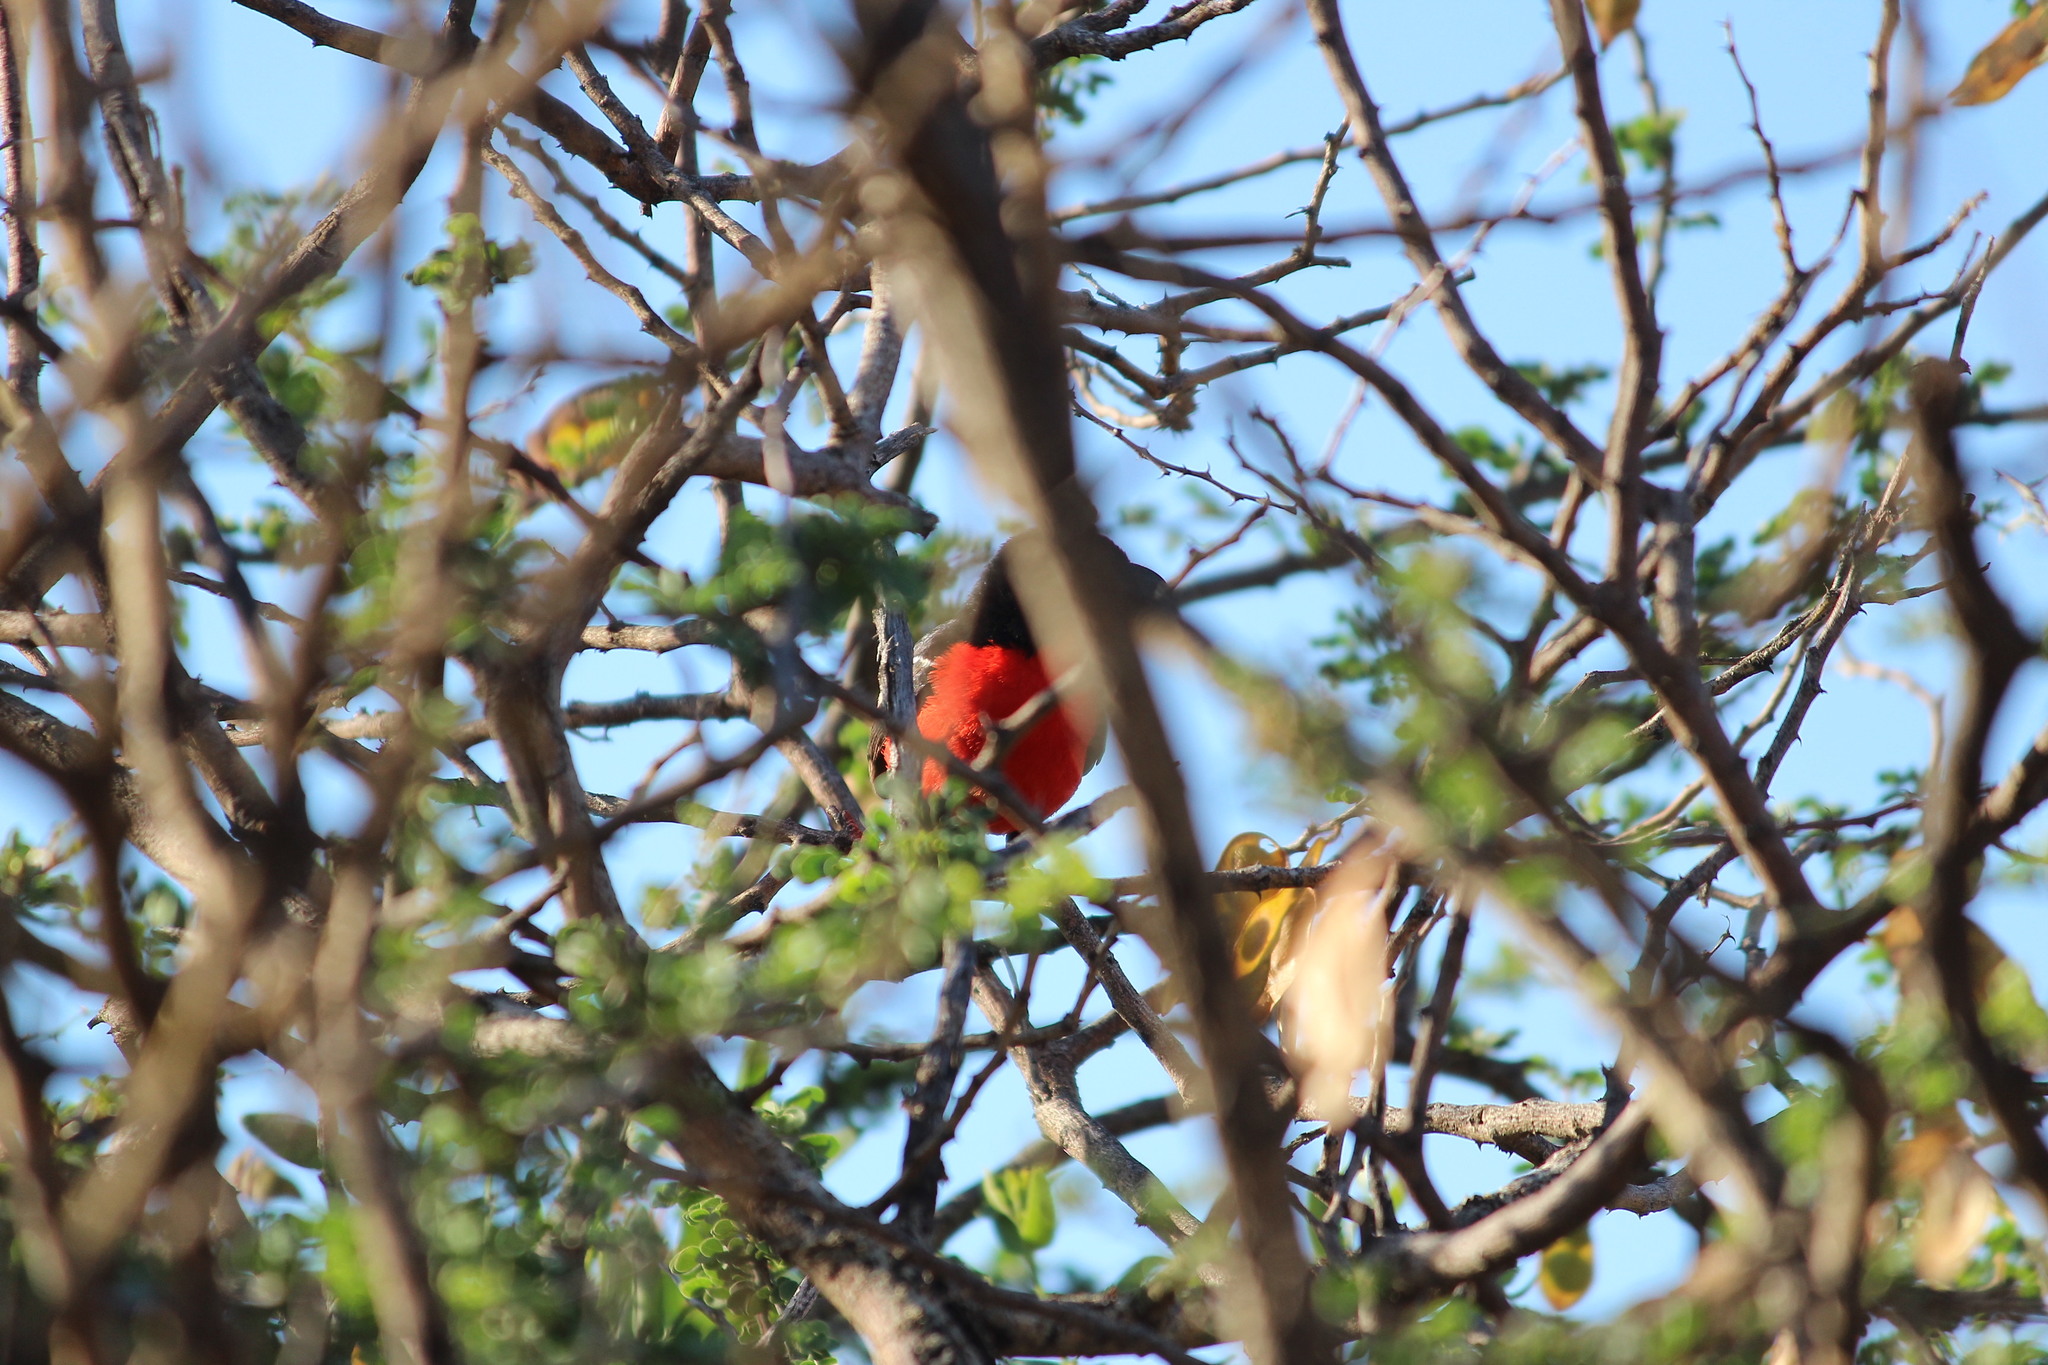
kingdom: Animalia
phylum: Chordata
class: Aves
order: Passeriformes
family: Malaconotidae
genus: Laniarius
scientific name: Laniarius atrococcineus
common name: Crimson-breasted shrike
